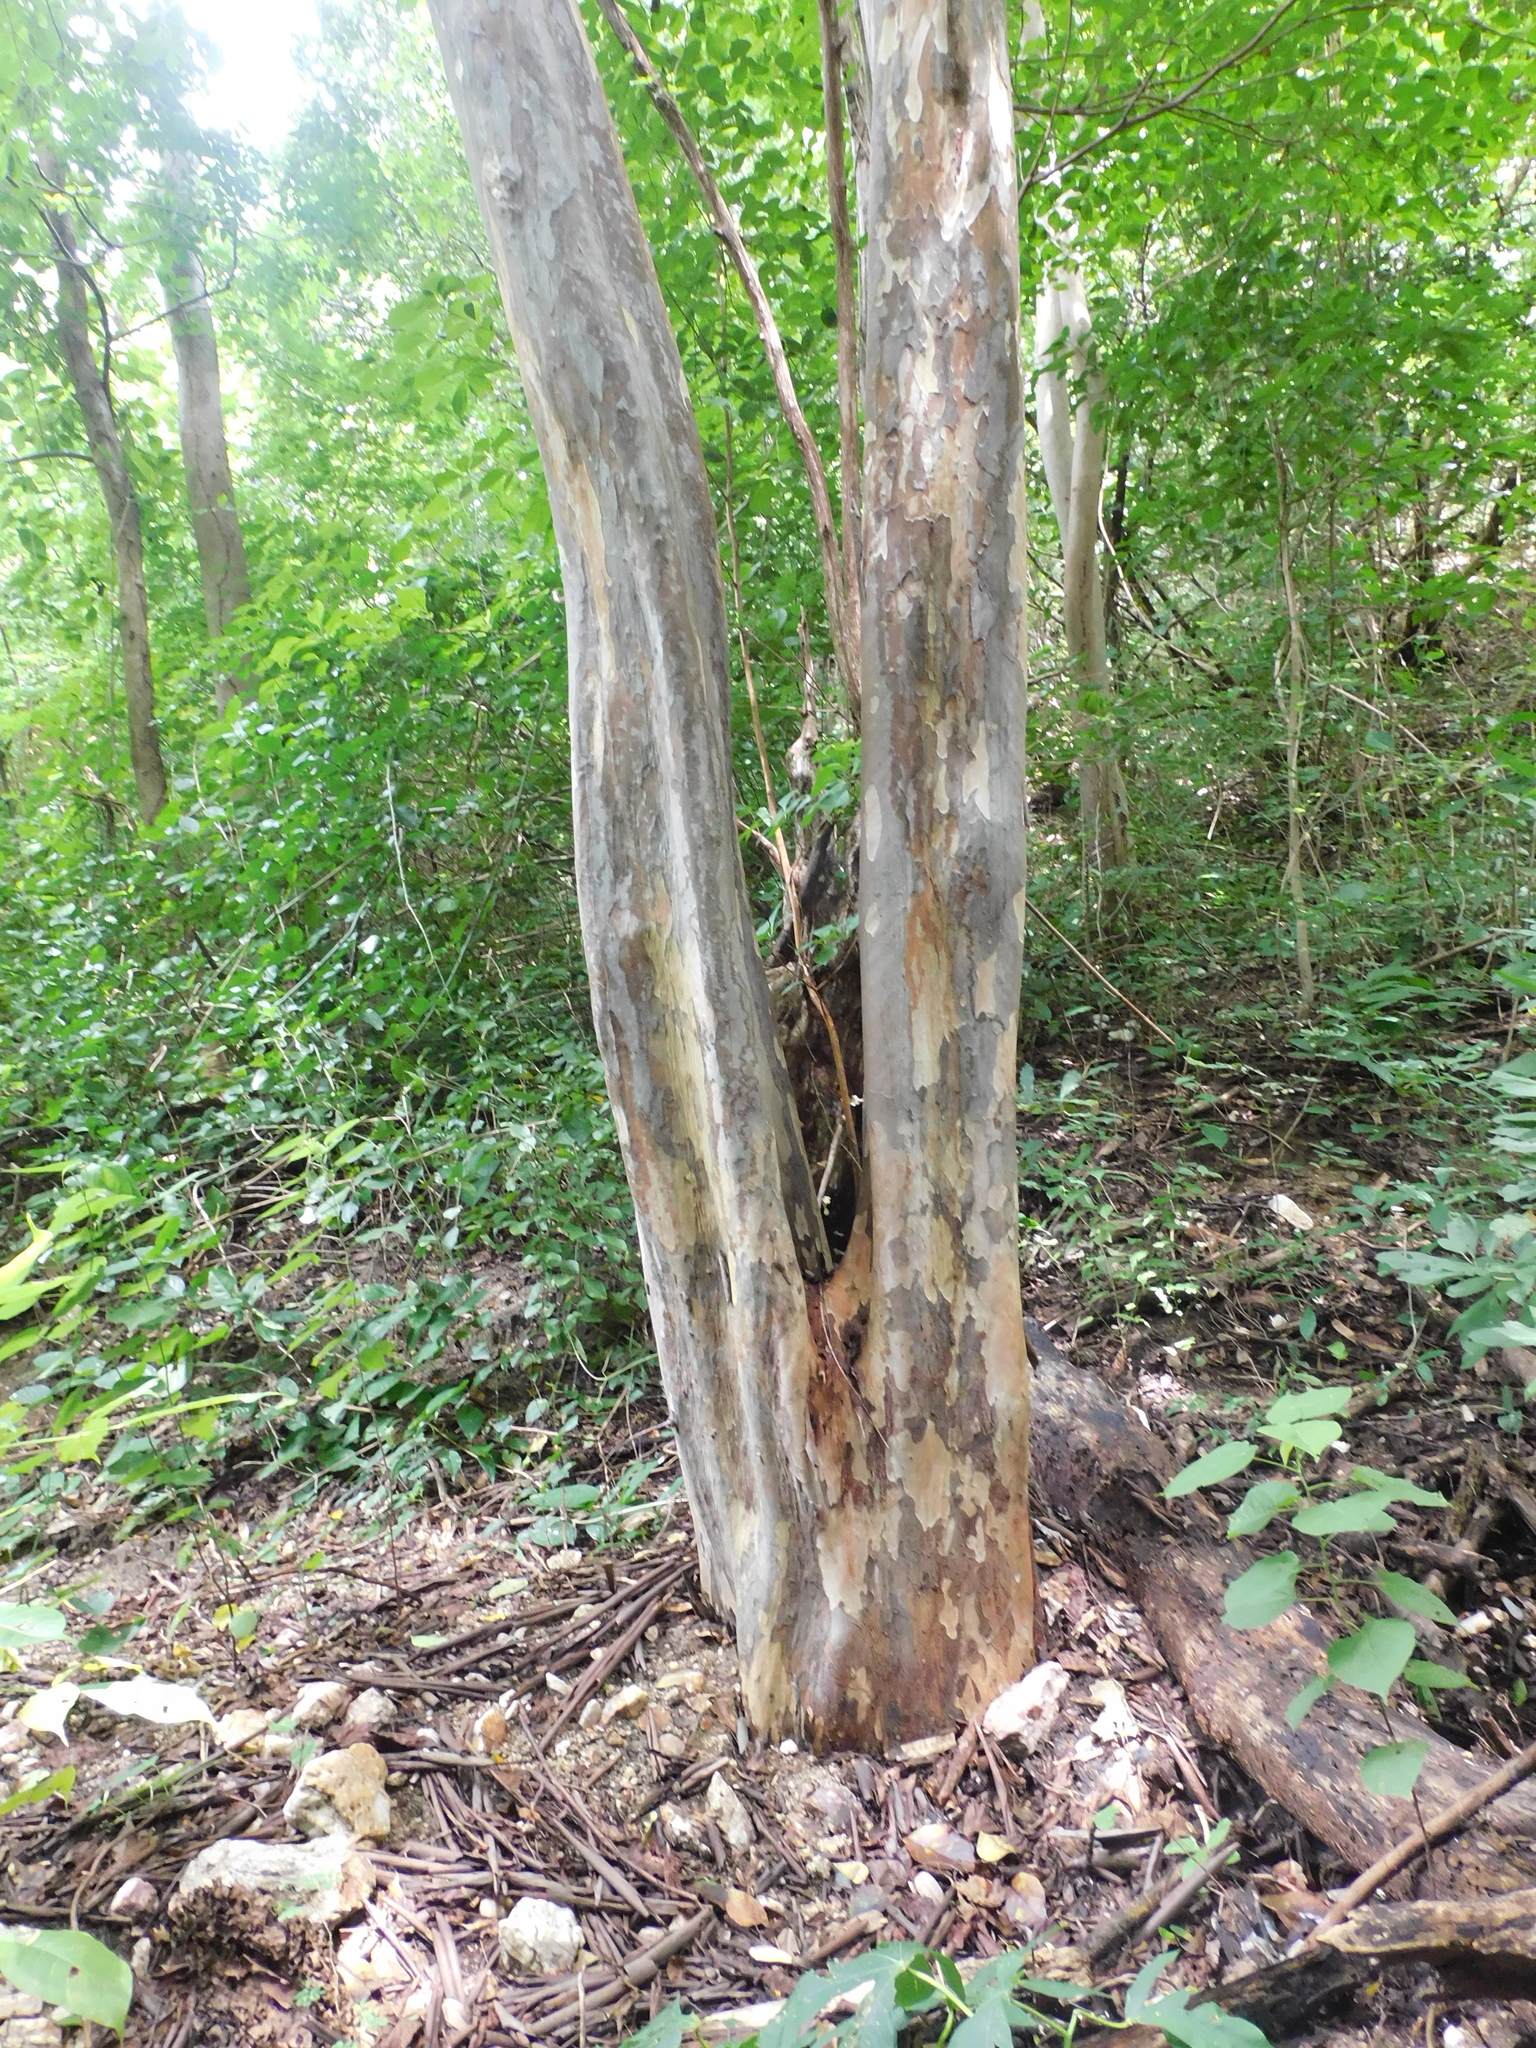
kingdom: Plantae
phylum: Tracheophyta
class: Magnoliopsida
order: Fabales
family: Fabaceae
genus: Libidibia
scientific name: Libidibia punctata
